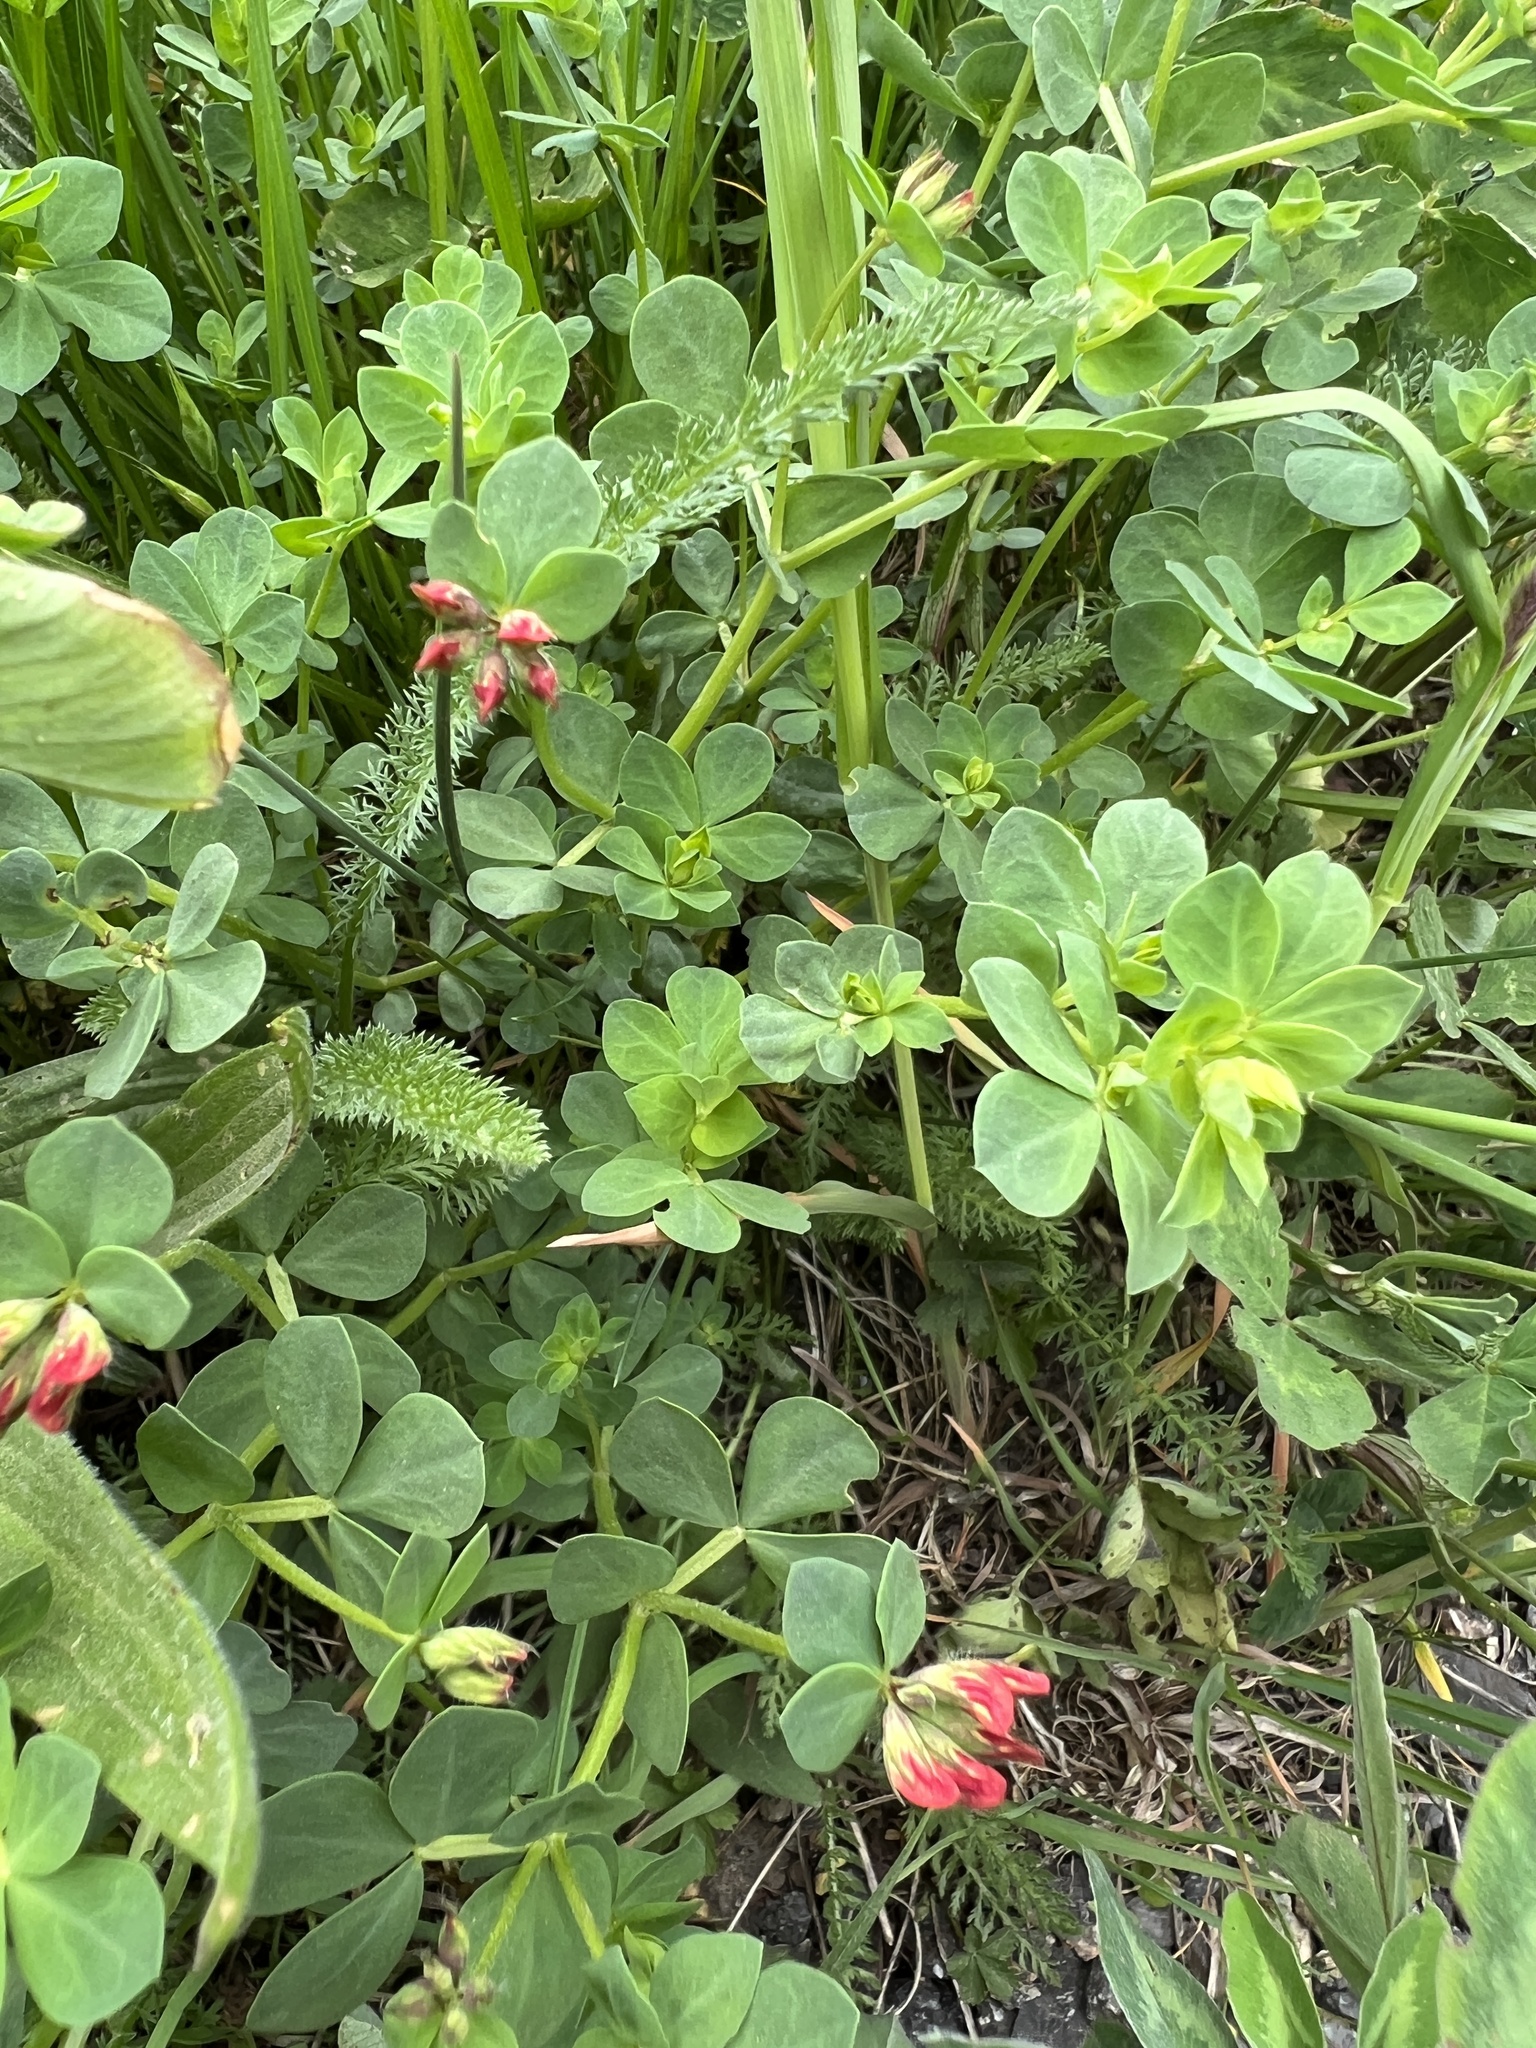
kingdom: Plantae
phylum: Tracheophyta
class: Magnoliopsida
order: Fabales
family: Fabaceae
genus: Lotus
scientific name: Lotus corniculatus
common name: Common bird's-foot-trefoil
